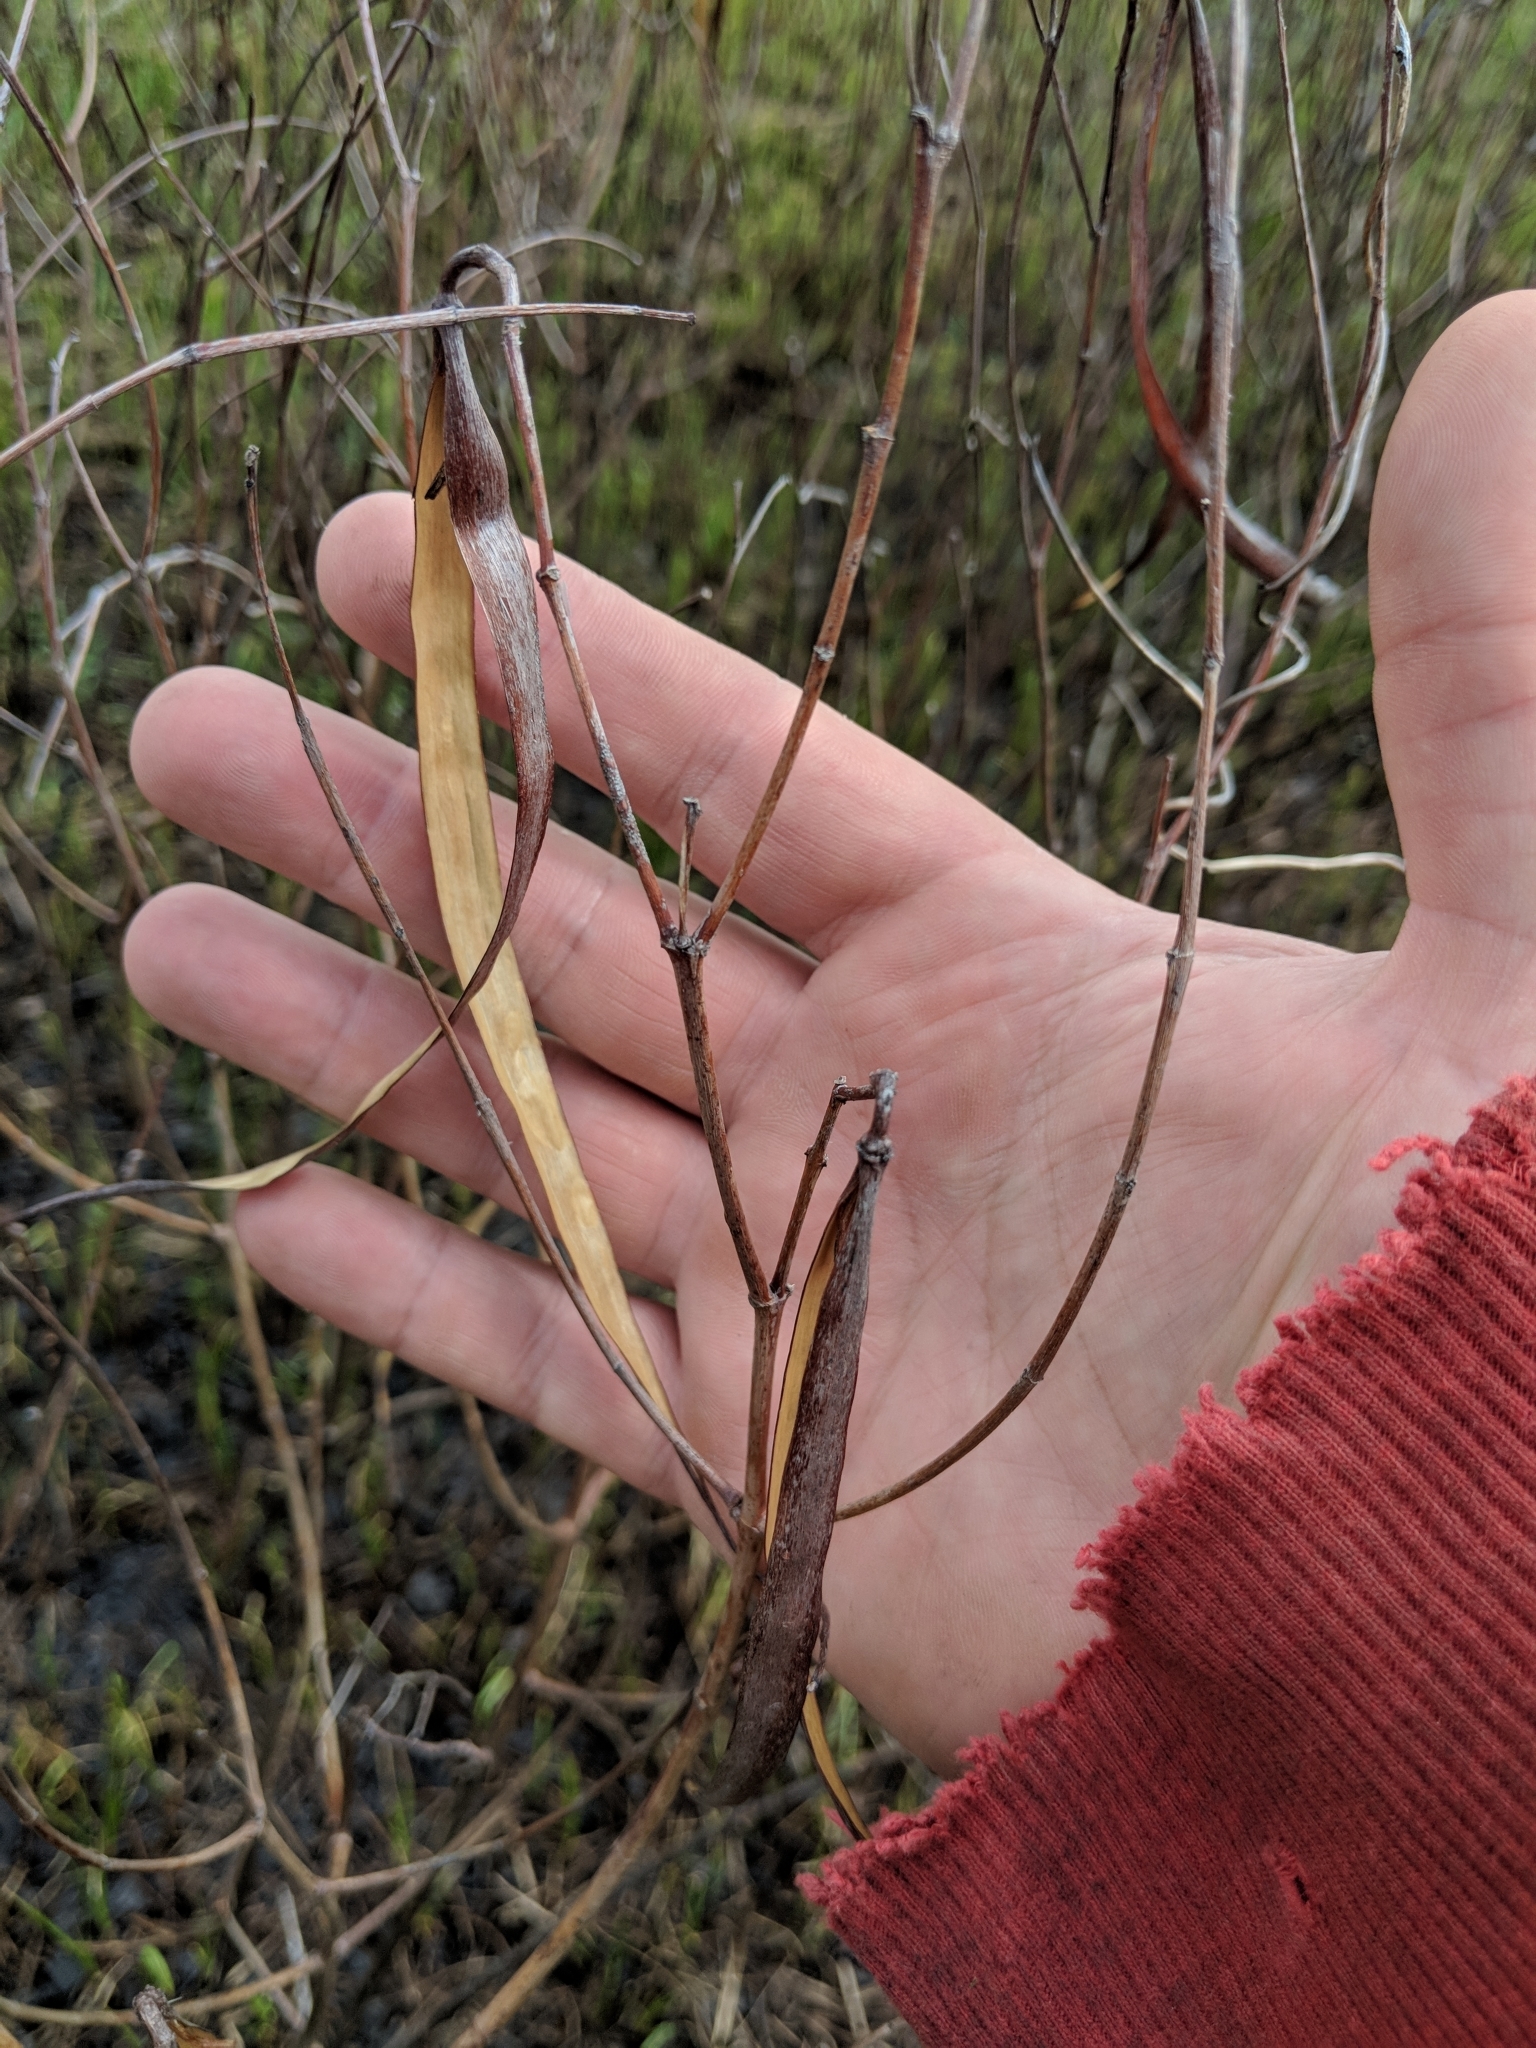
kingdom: Plantae
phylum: Tracheophyta
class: Magnoliopsida
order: Gentianales
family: Apocynaceae
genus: Apocynum
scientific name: Apocynum cannabinum
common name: Hemp dogbane
